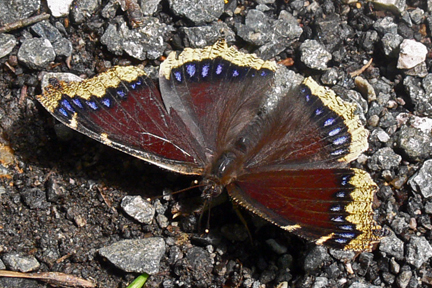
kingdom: Animalia
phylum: Arthropoda
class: Insecta
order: Lepidoptera
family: Nymphalidae
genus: Nymphalis
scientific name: Nymphalis antiopa
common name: Camberwell beauty
